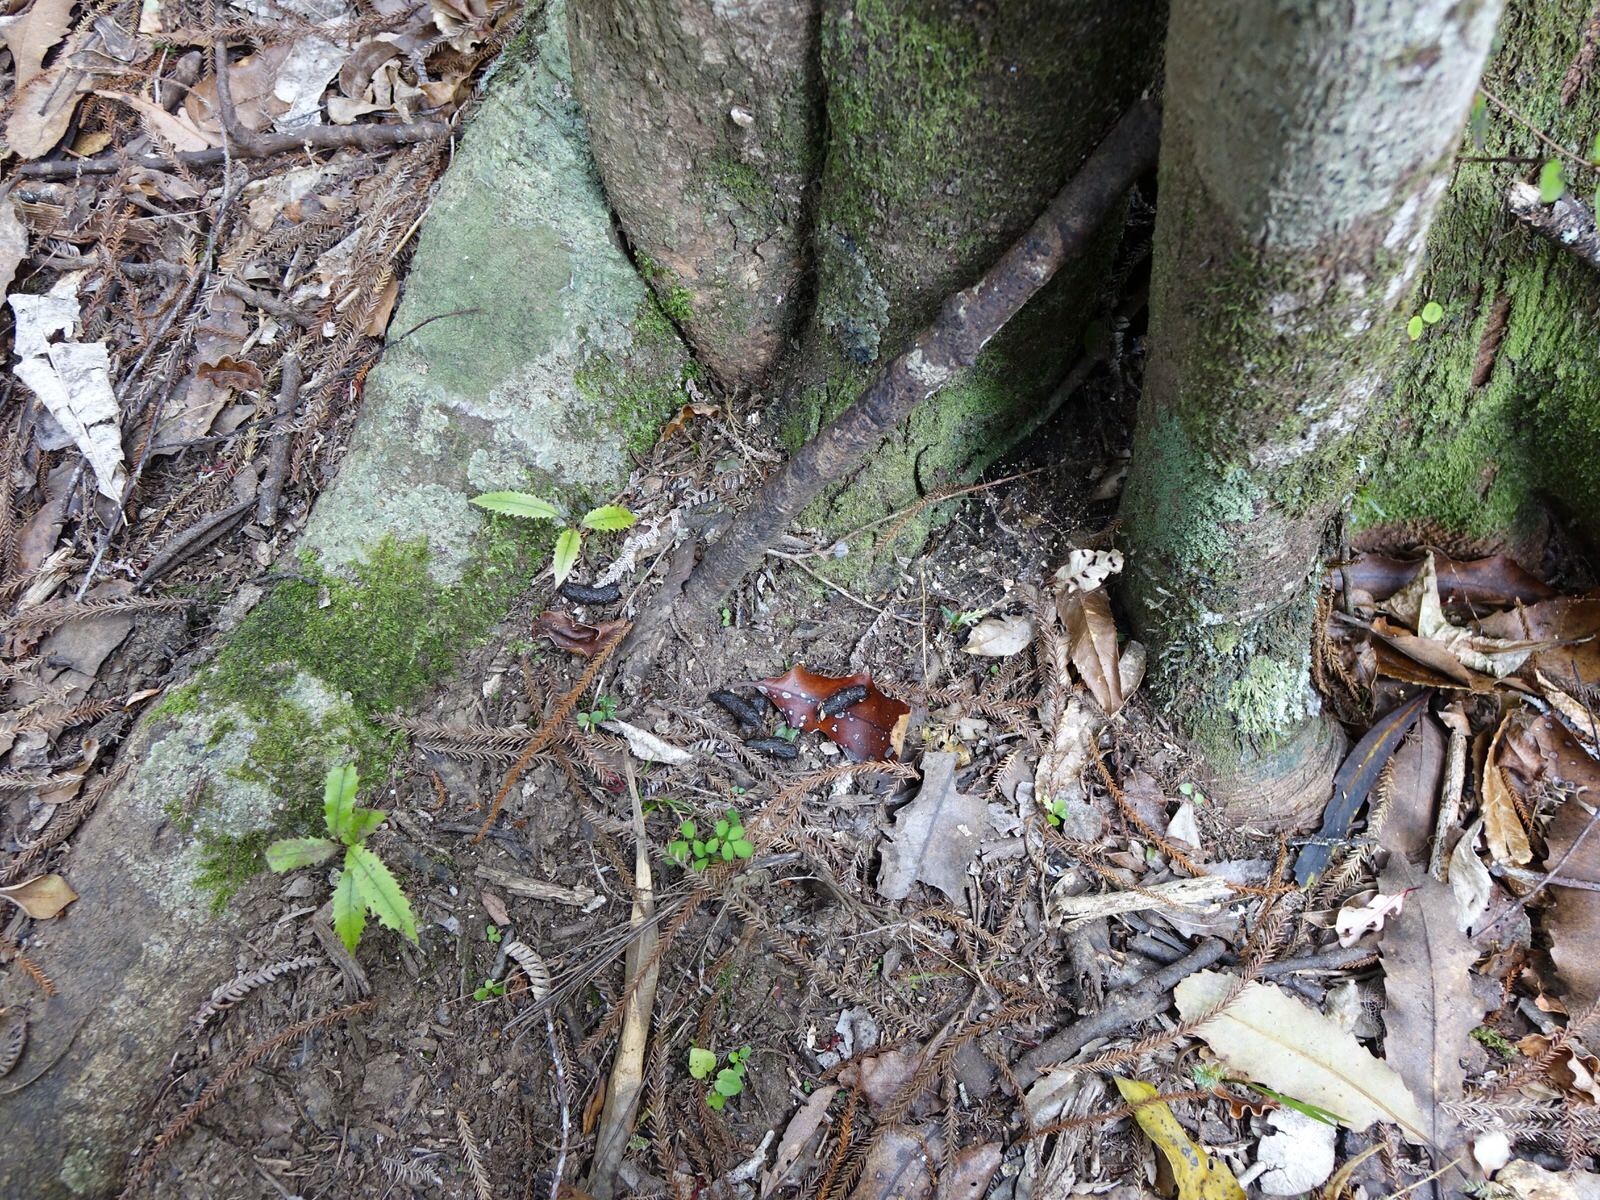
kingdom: Animalia
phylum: Chordata
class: Mammalia
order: Diprotodontia
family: Phalangeridae
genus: Trichosurus
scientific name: Trichosurus vulpecula
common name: Common brushtail
